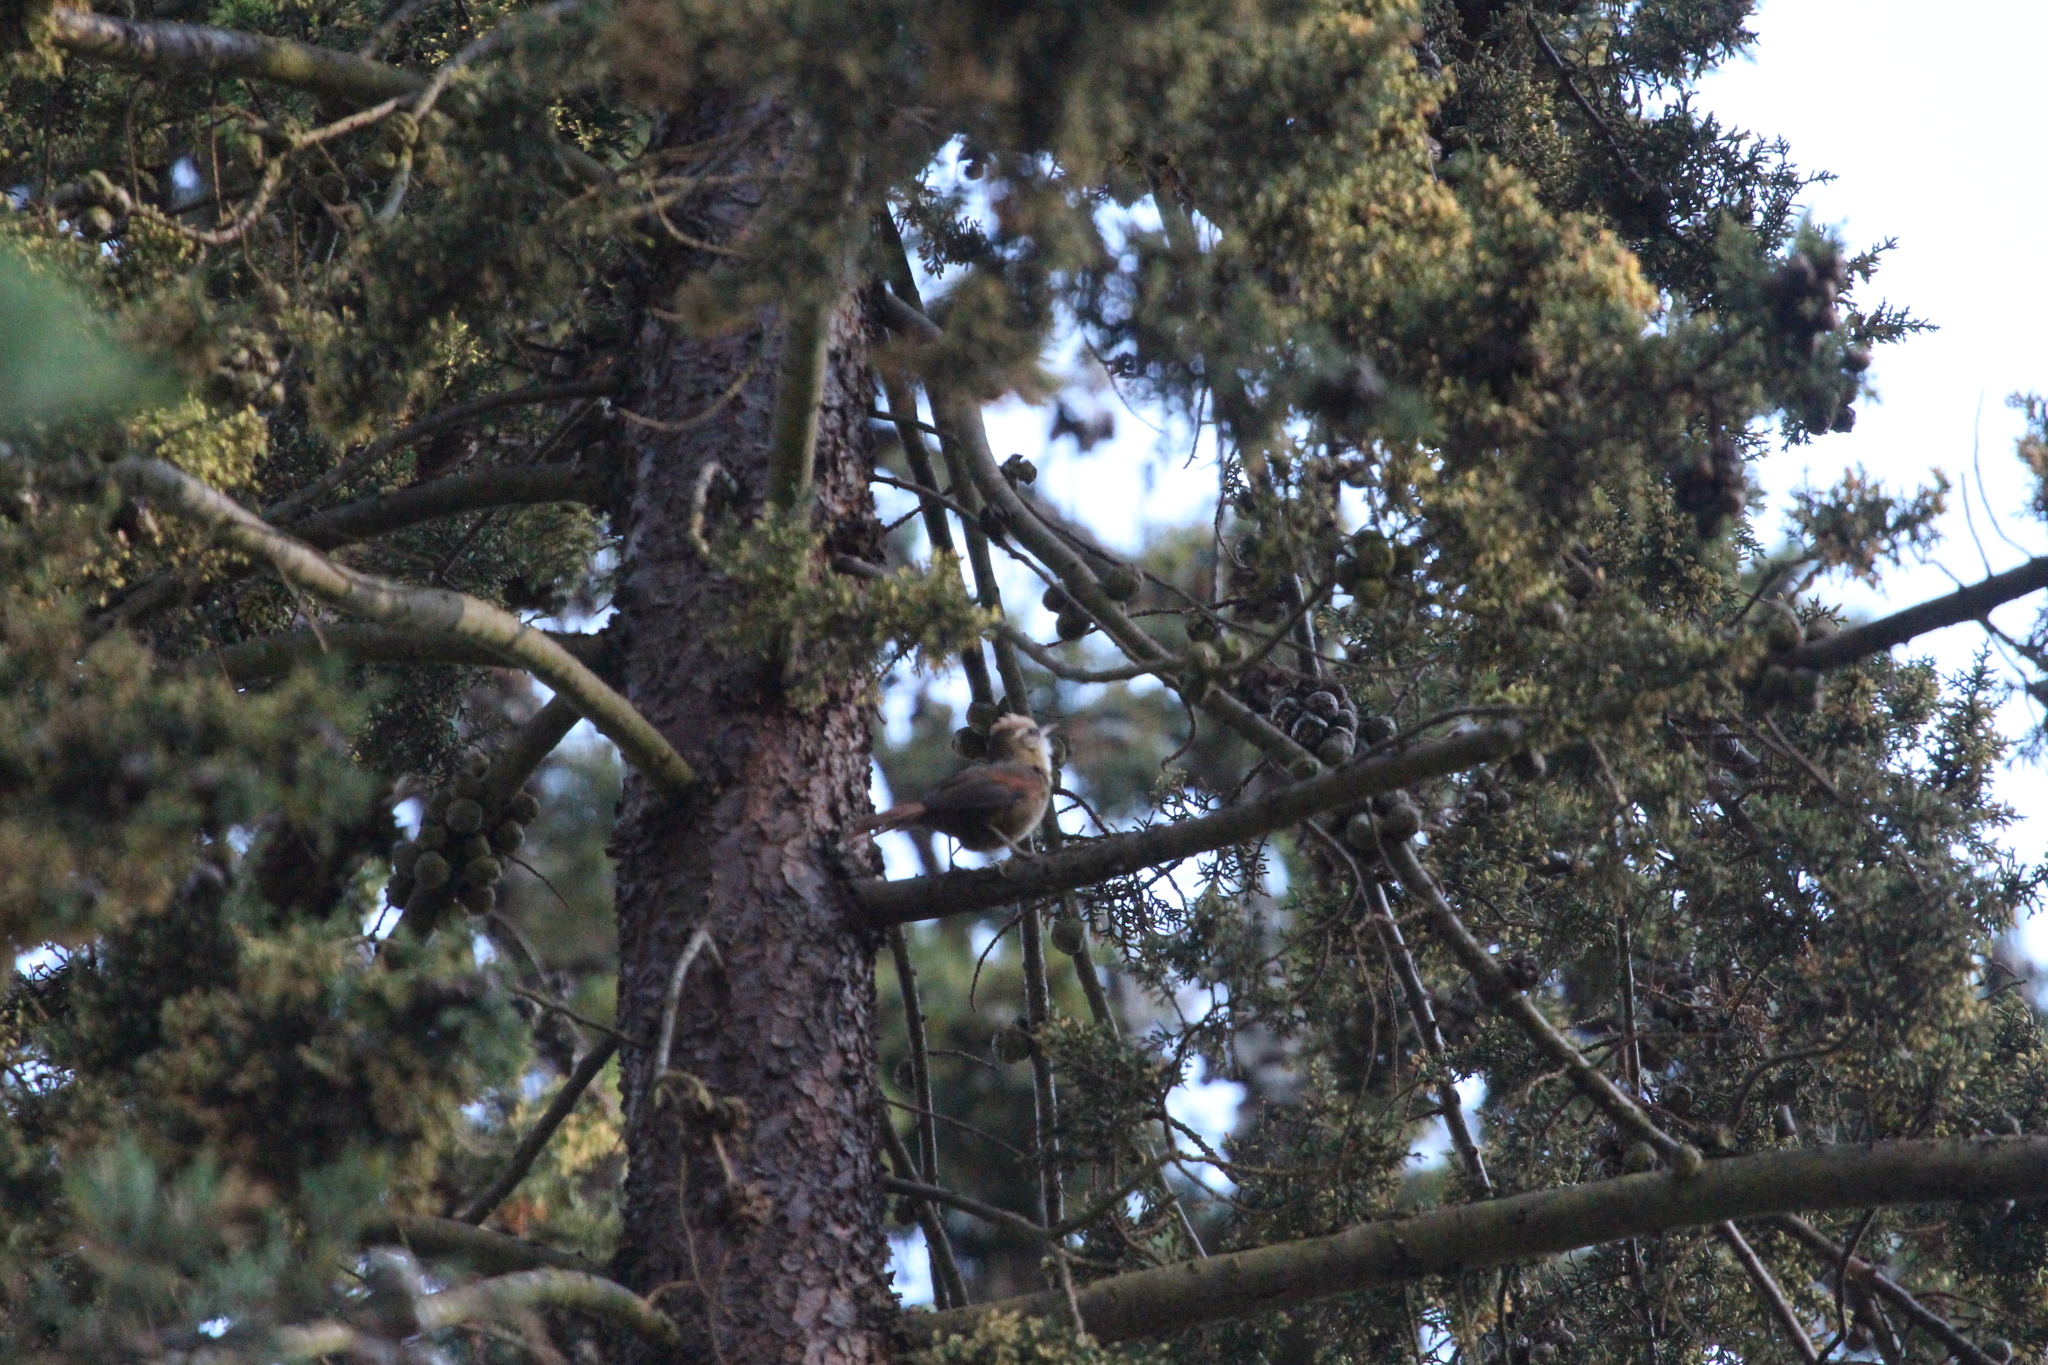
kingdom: Animalia
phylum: Chordata
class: Aves
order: Passeriformes
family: Furnariidae
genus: Cranioleuca
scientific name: Cranioleuca albicapilla
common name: Creamy-crested spinetail
